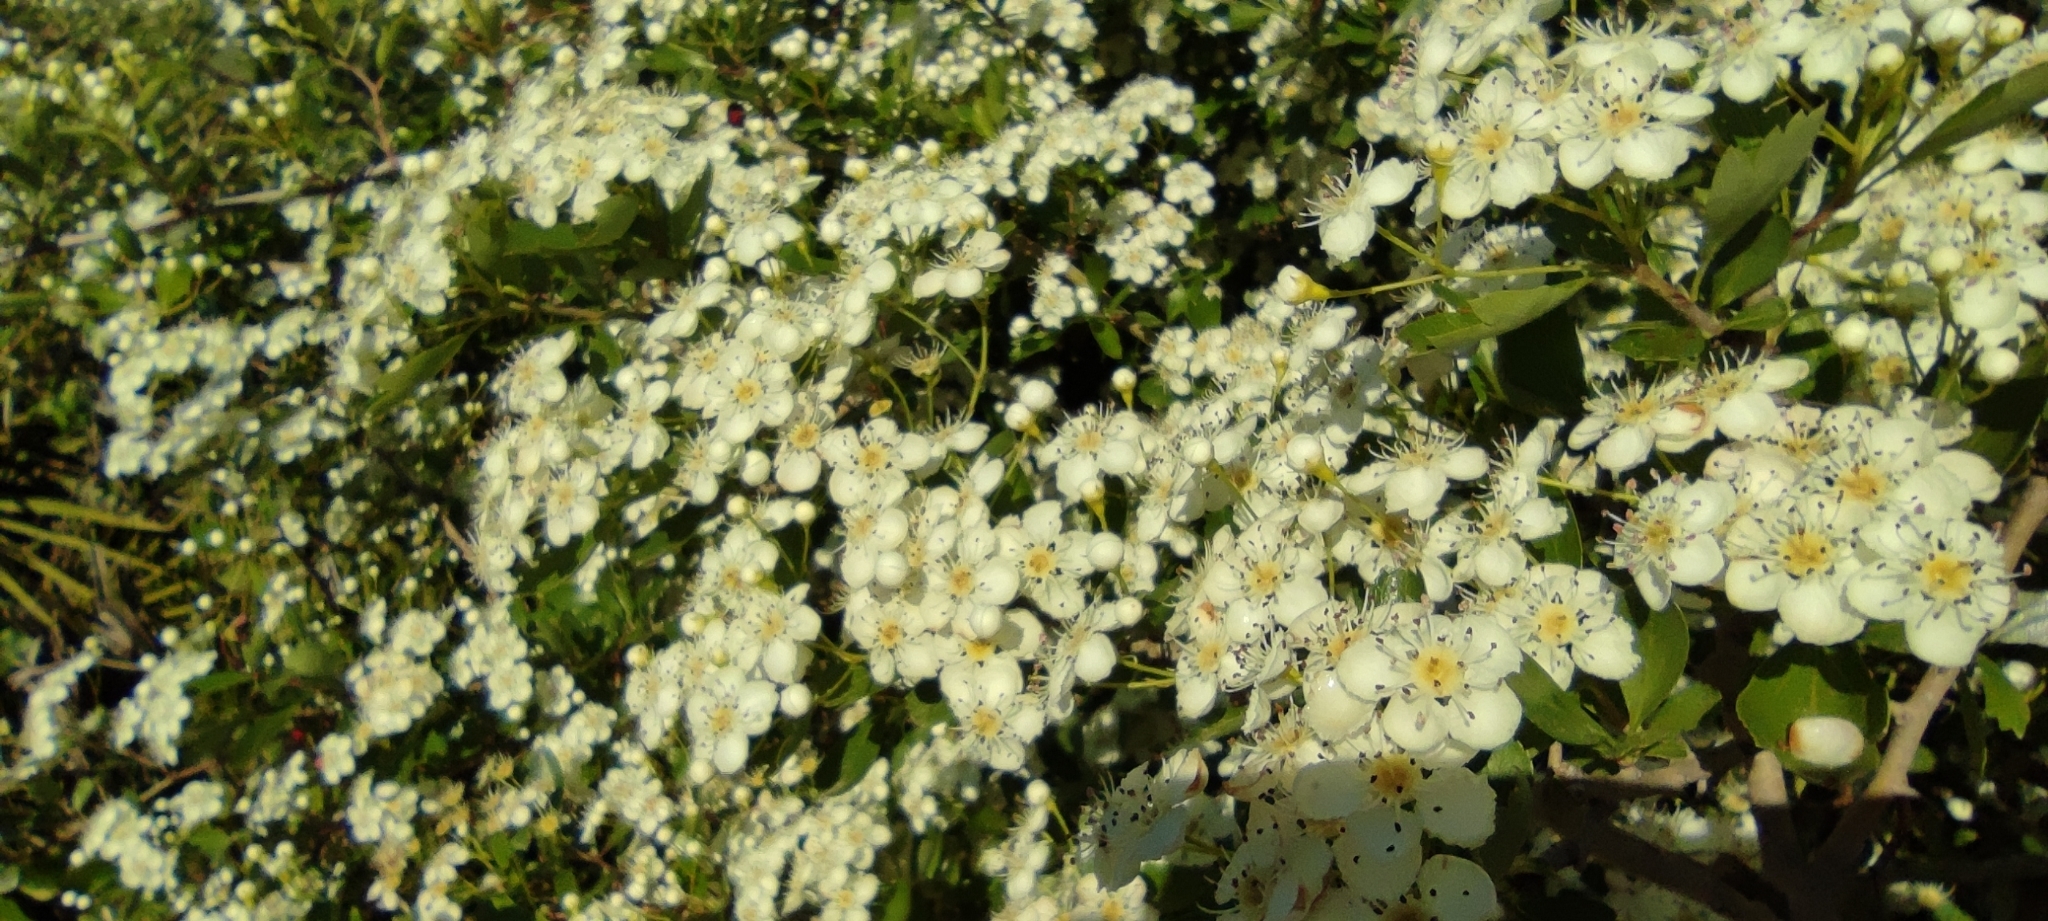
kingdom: Plantae
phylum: Tracheophyta
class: Magnoliopsida
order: Rosales
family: Rosaceae
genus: Crataegus
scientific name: Crataegus monogyna
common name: Hawthorn
